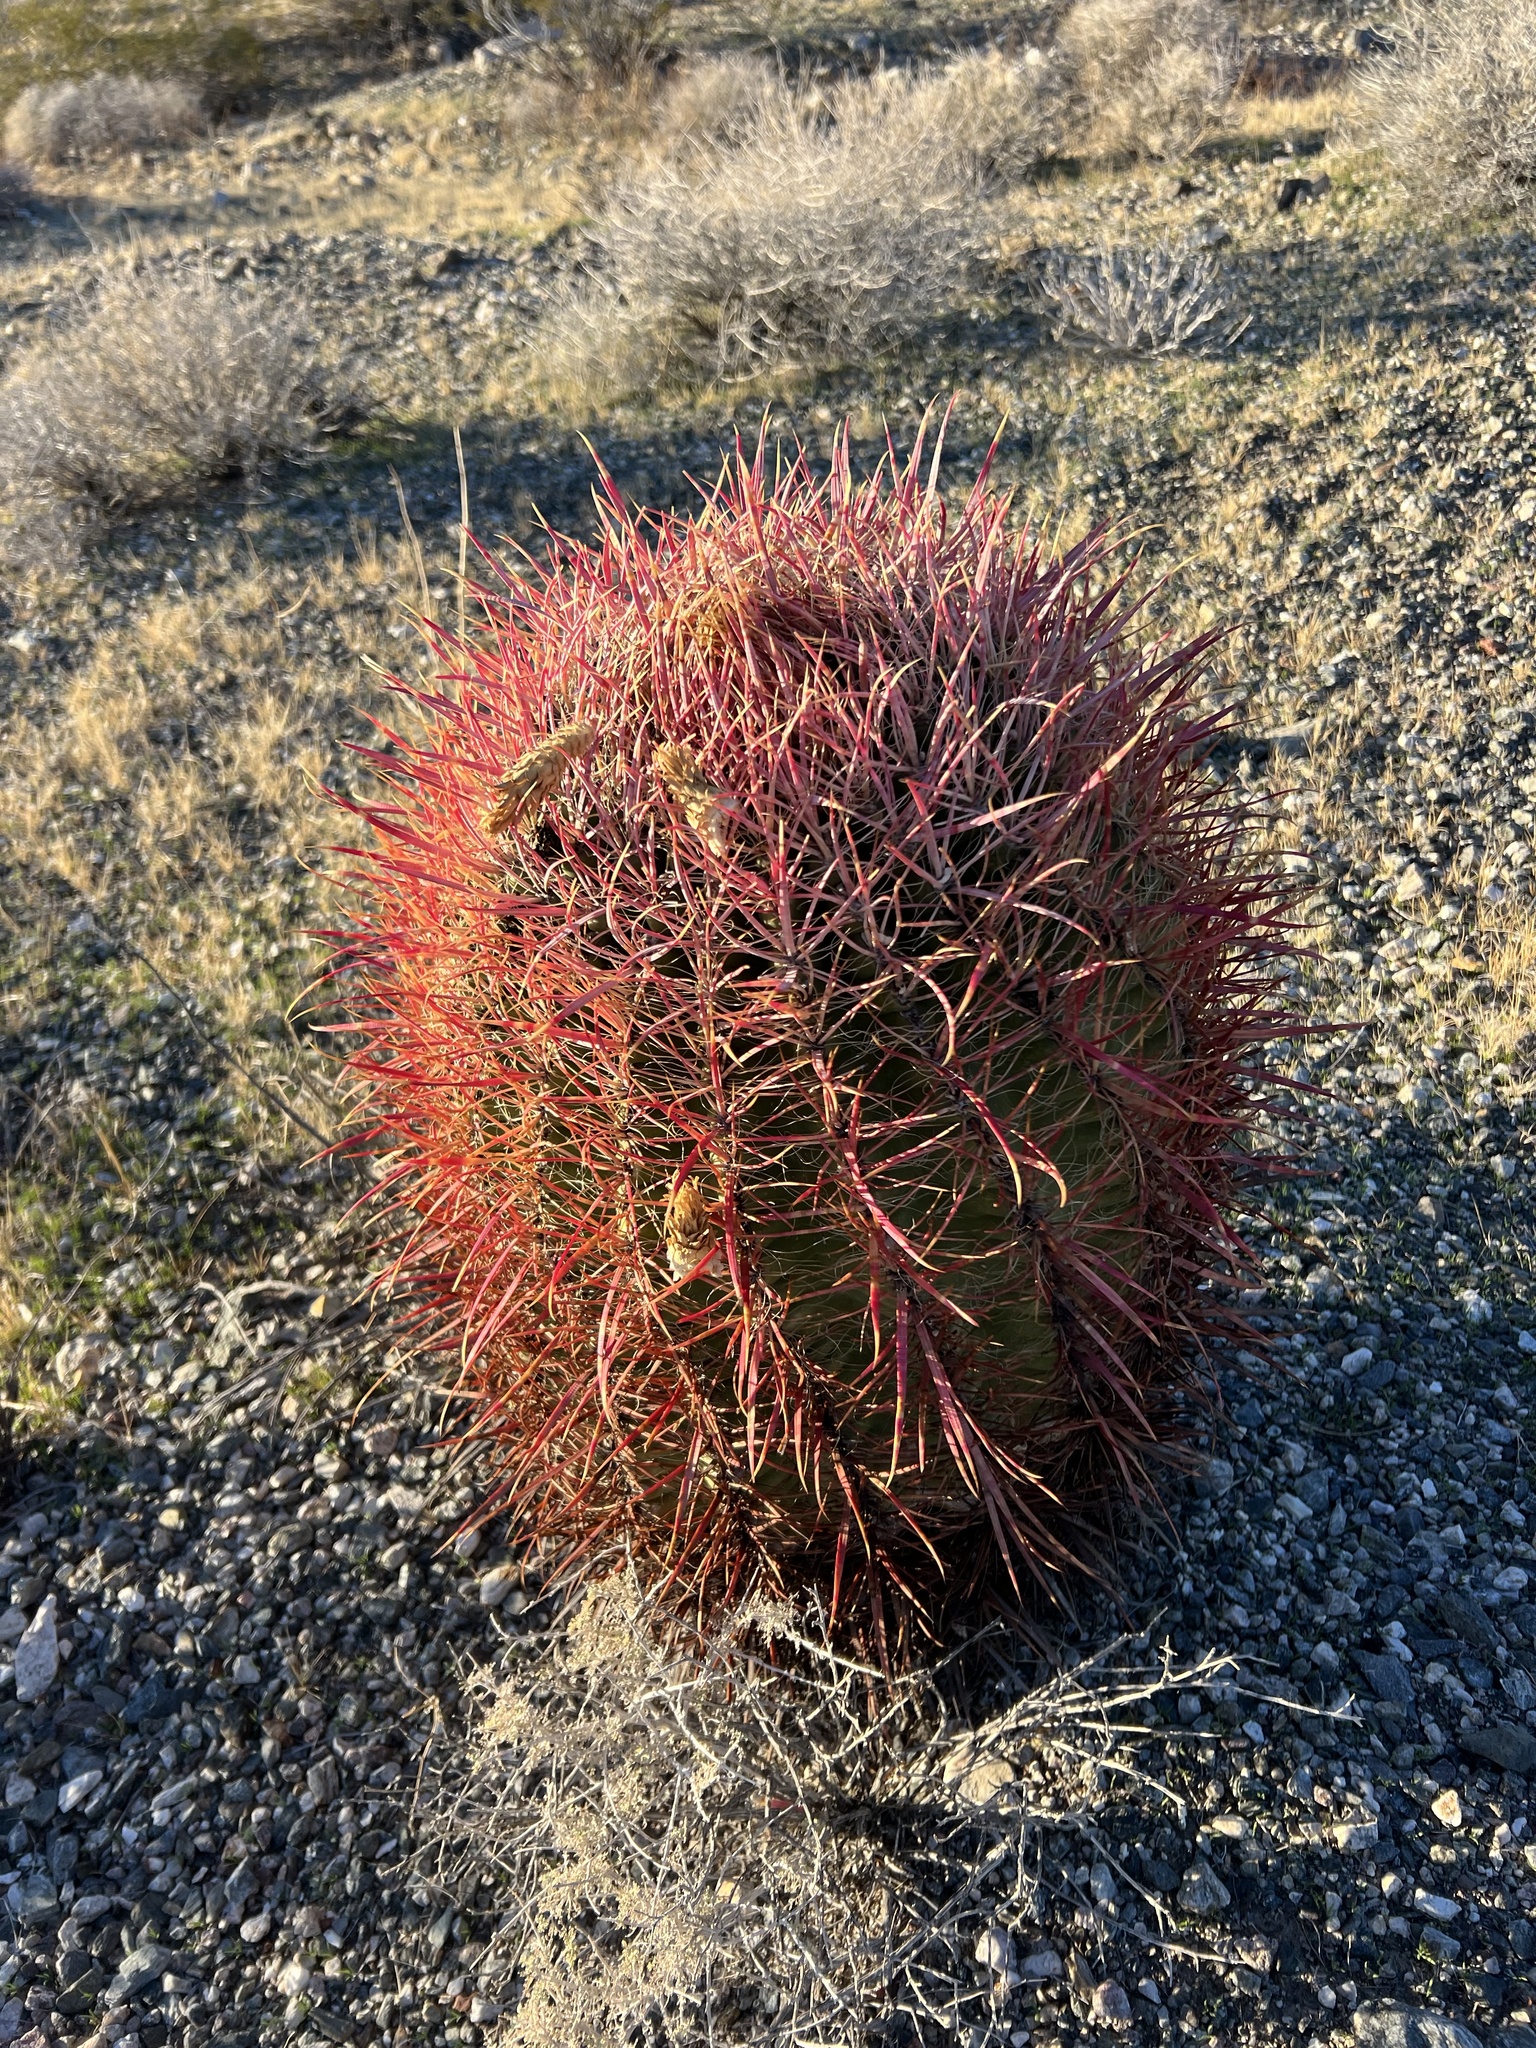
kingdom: Plantae
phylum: Tracheophyta
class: Magnoliopsida
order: Caryophyllales
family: Cactaceae
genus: Ferocactus
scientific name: Ferocactus cylindraceus
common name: California barrel cactus
